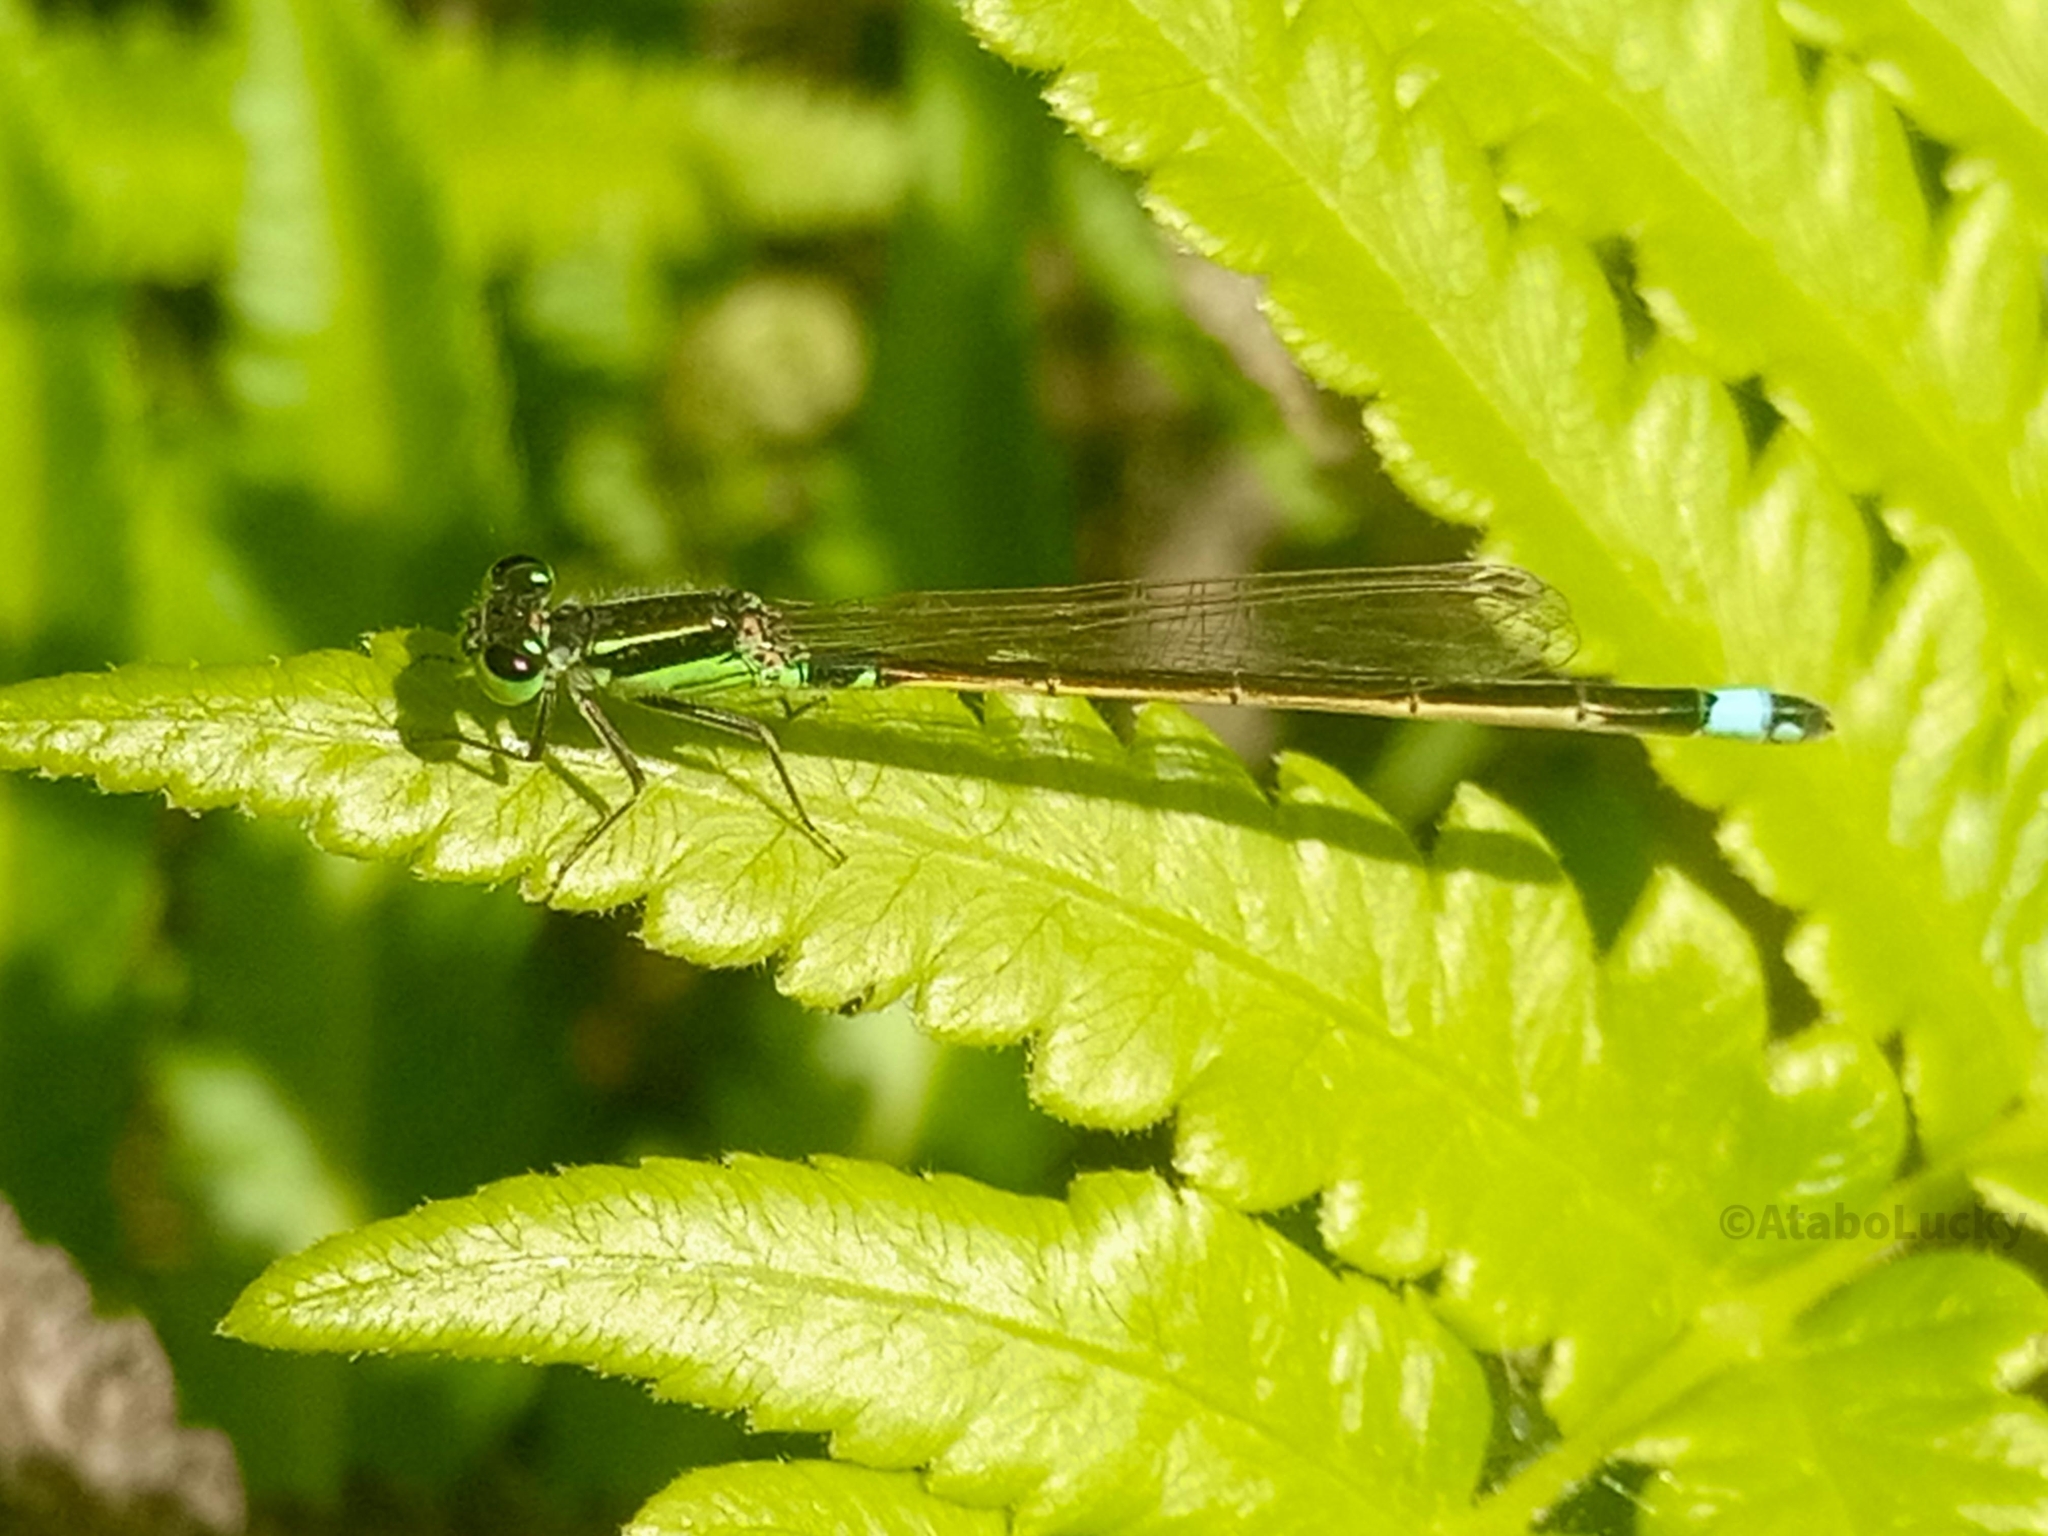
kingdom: Animalia
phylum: Arthropoda
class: Insecta
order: Odonata
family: Coenagrionidae
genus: Ischnura
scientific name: Ischnura senegalensis
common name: Tropical bluetail
